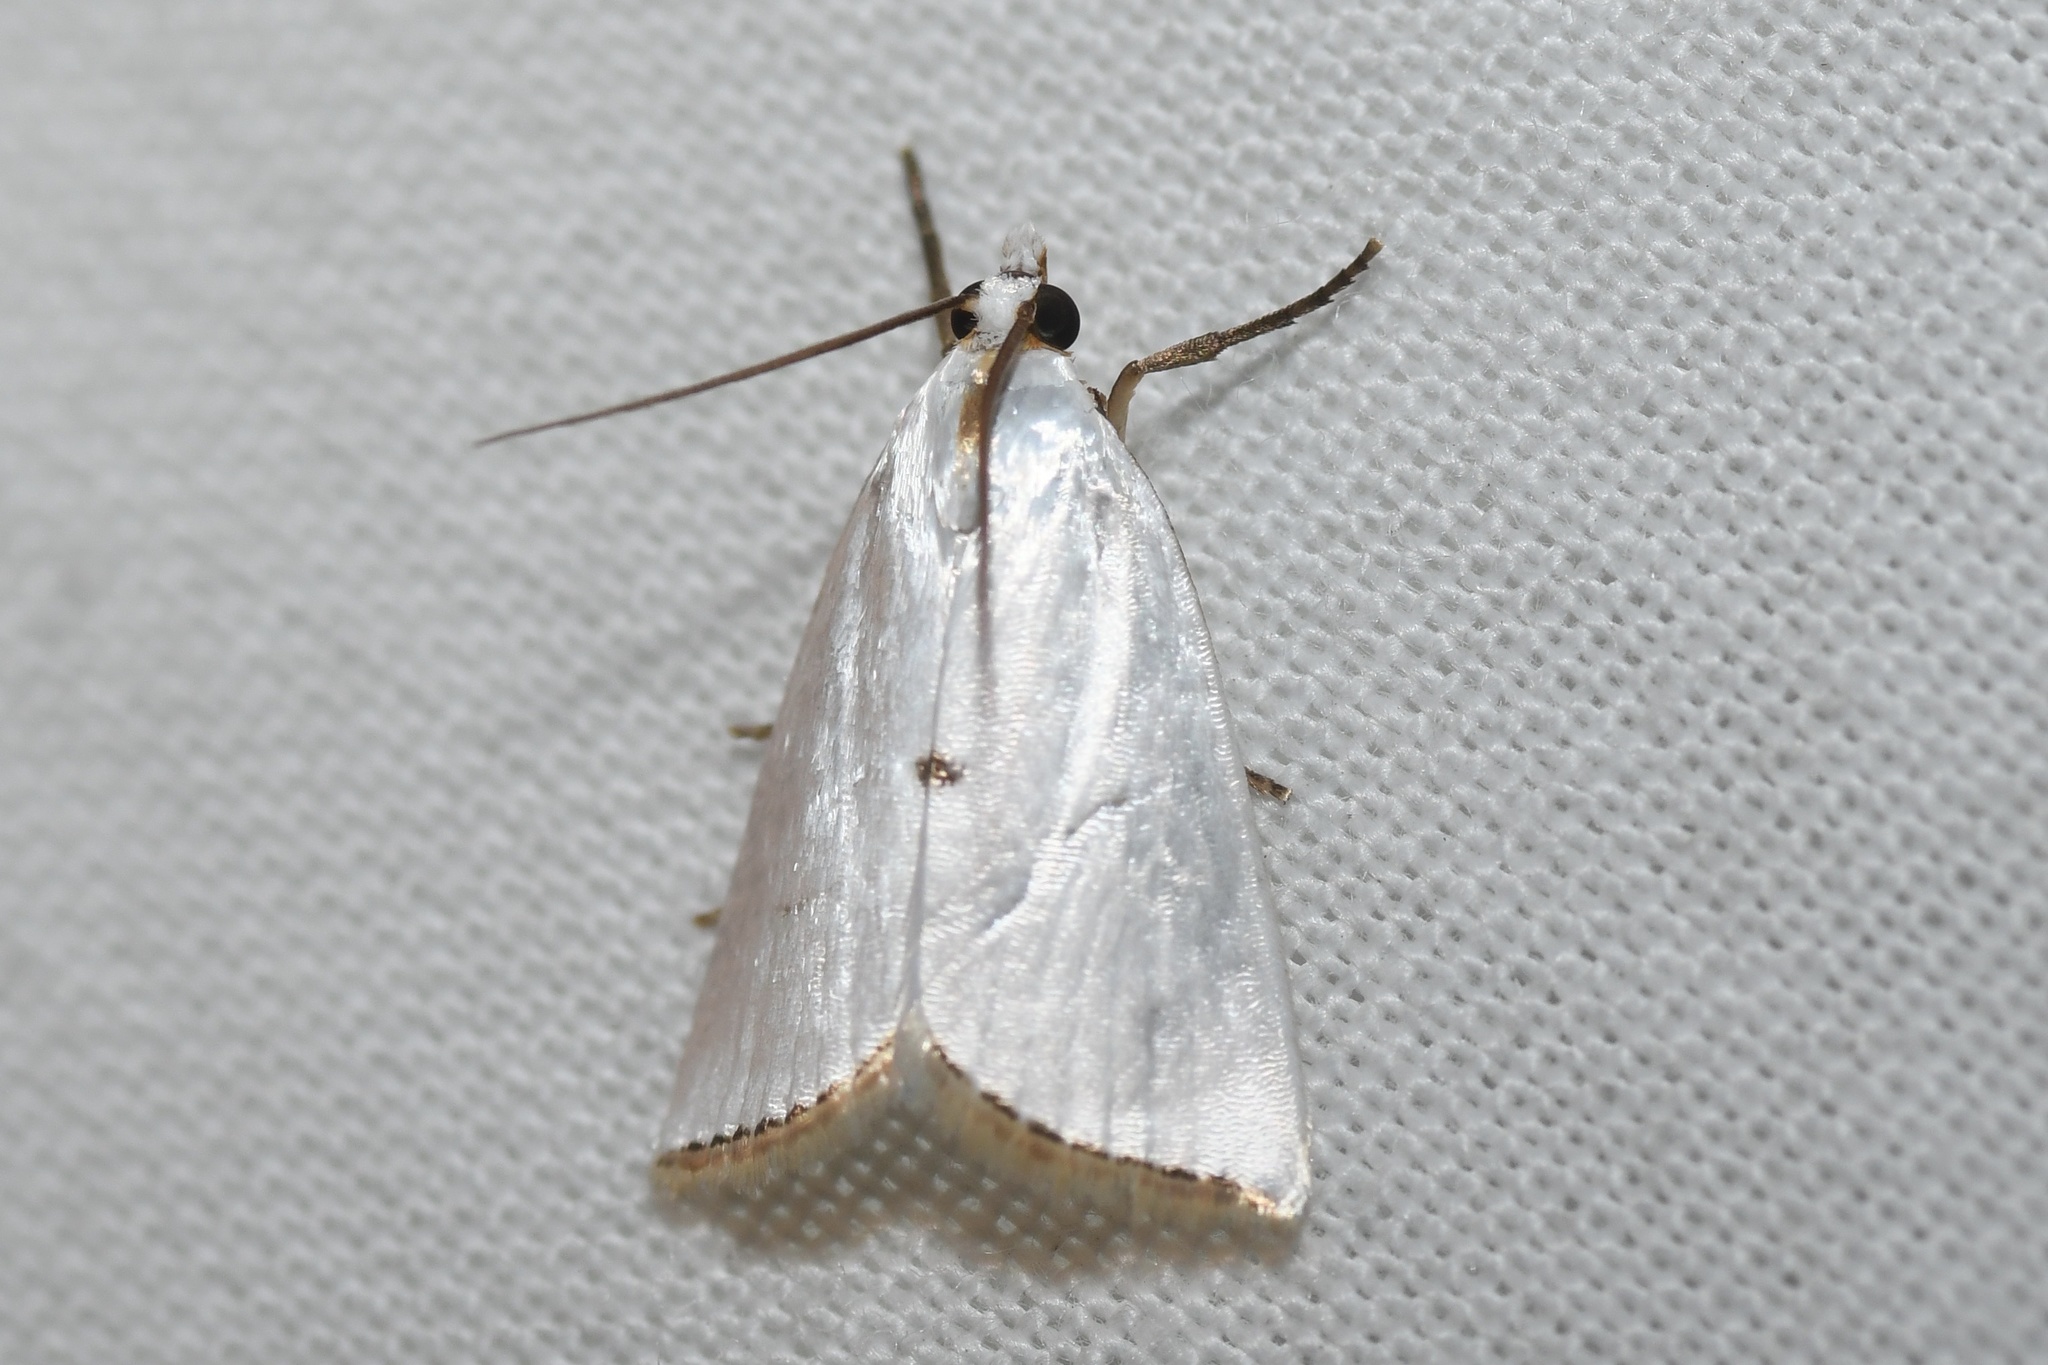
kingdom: Animalia
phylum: Arthropoda
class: Insecta
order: Lepidoptera
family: Crambidae
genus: Argyria
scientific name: Argyria nivalis
